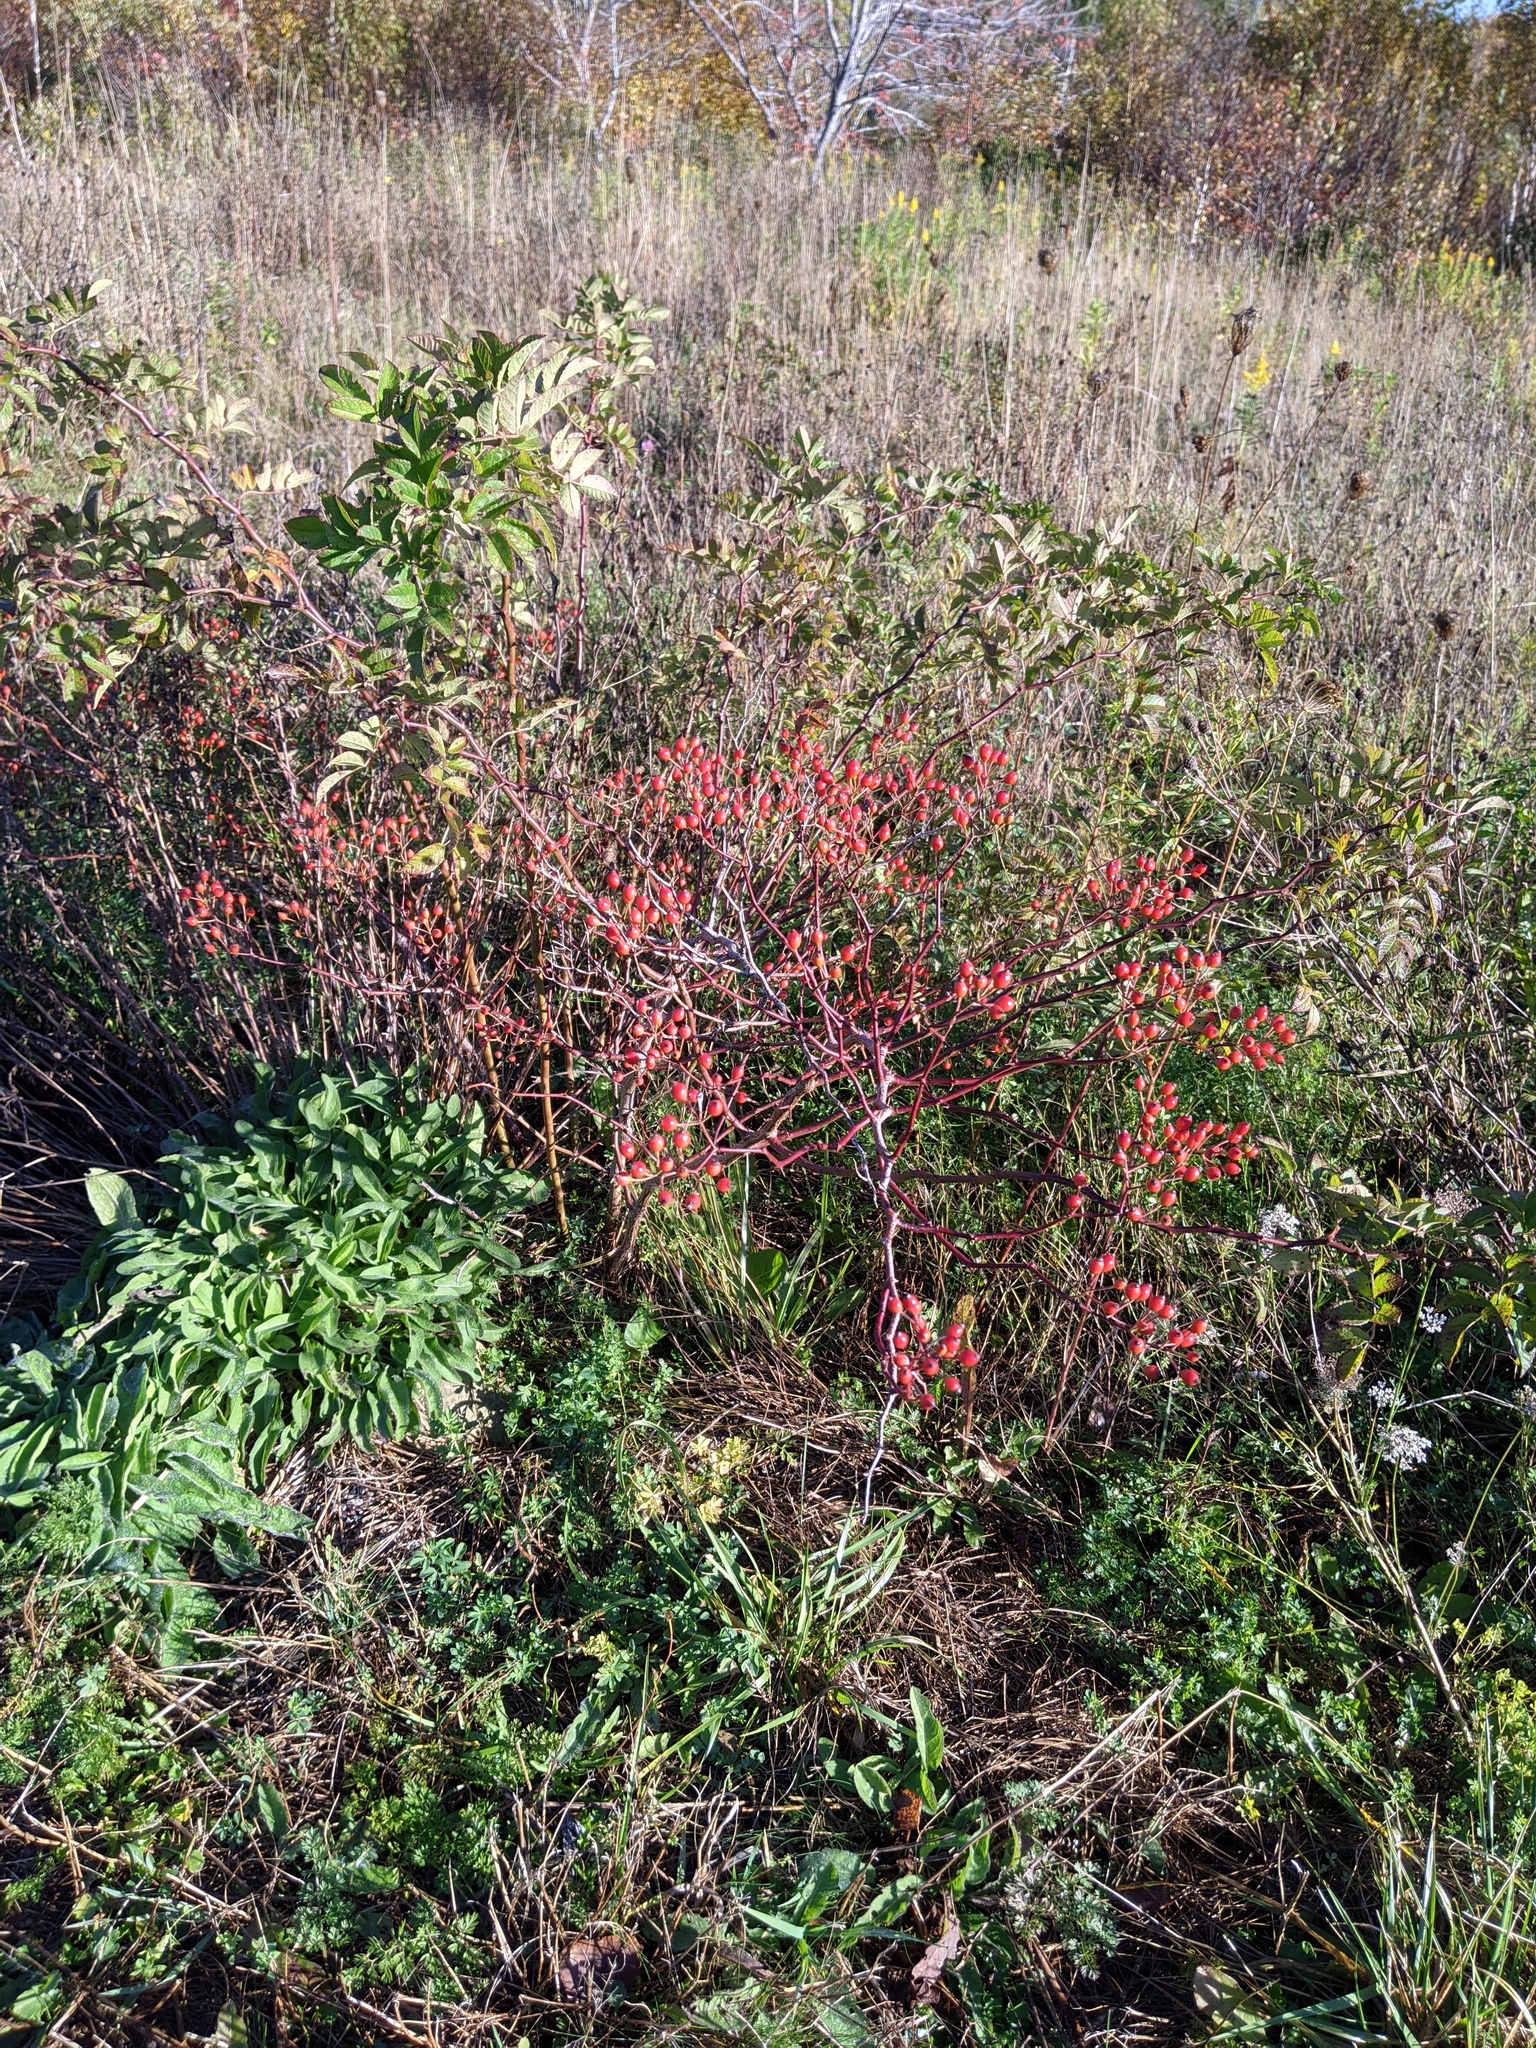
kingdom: Plantae
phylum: Tracheophyta
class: Magnoliopsida
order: Rosales
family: Rosaceae
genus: Rosa
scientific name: Rosa multiflora
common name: Multiflora rose
